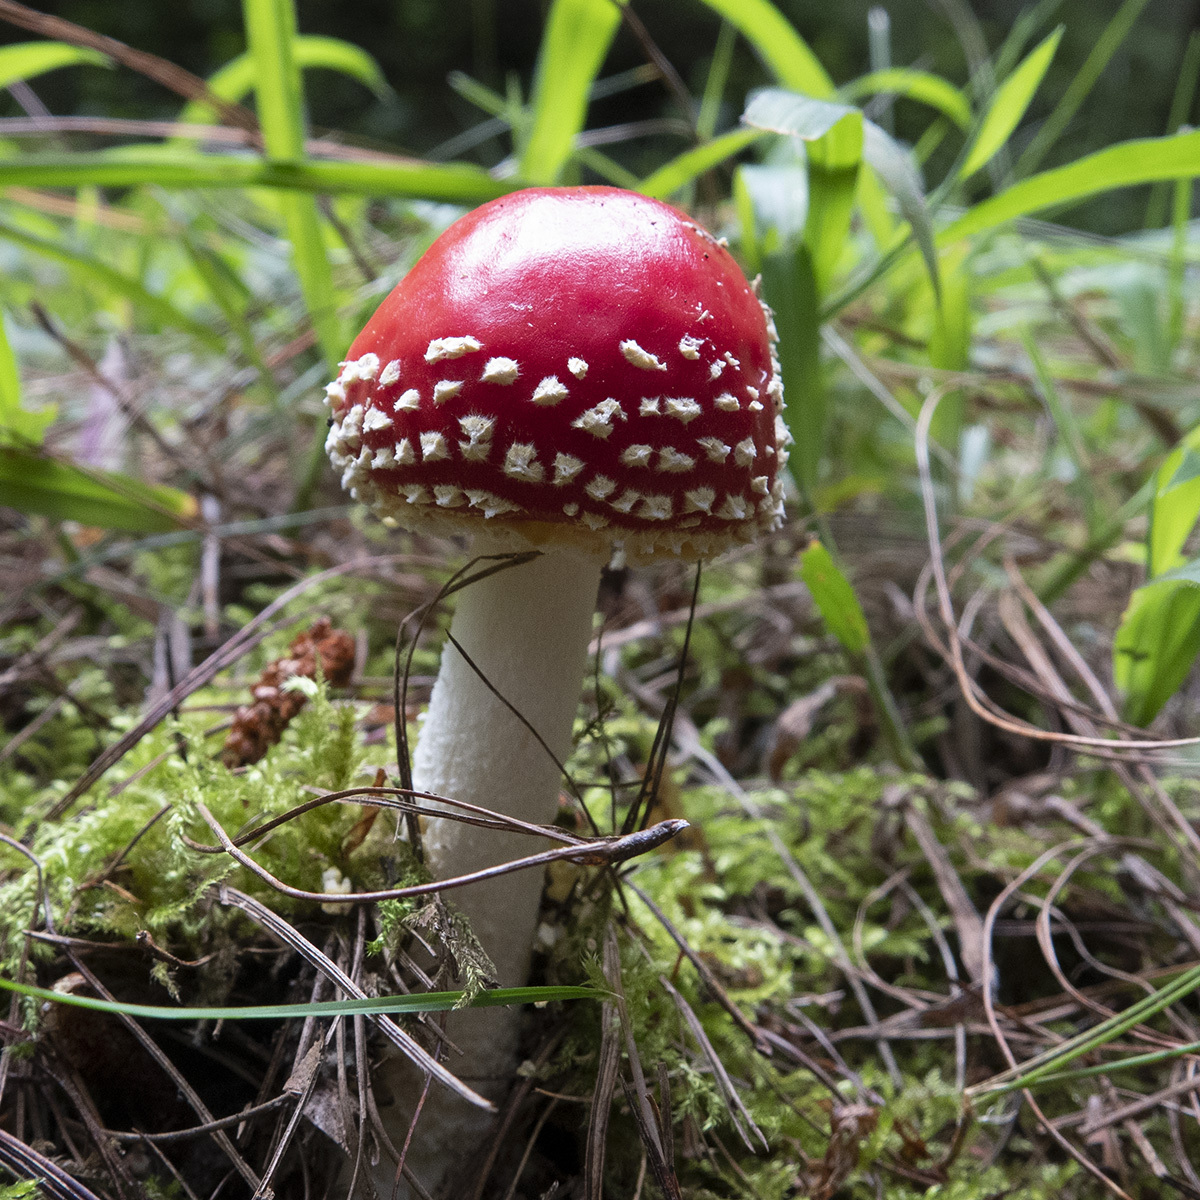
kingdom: Fungi
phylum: Basidiomycota
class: Agaricomycetes
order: Agaricales
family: Amanitaceae
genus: Amanita
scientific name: Amanita muscaria
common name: Fly agaric
